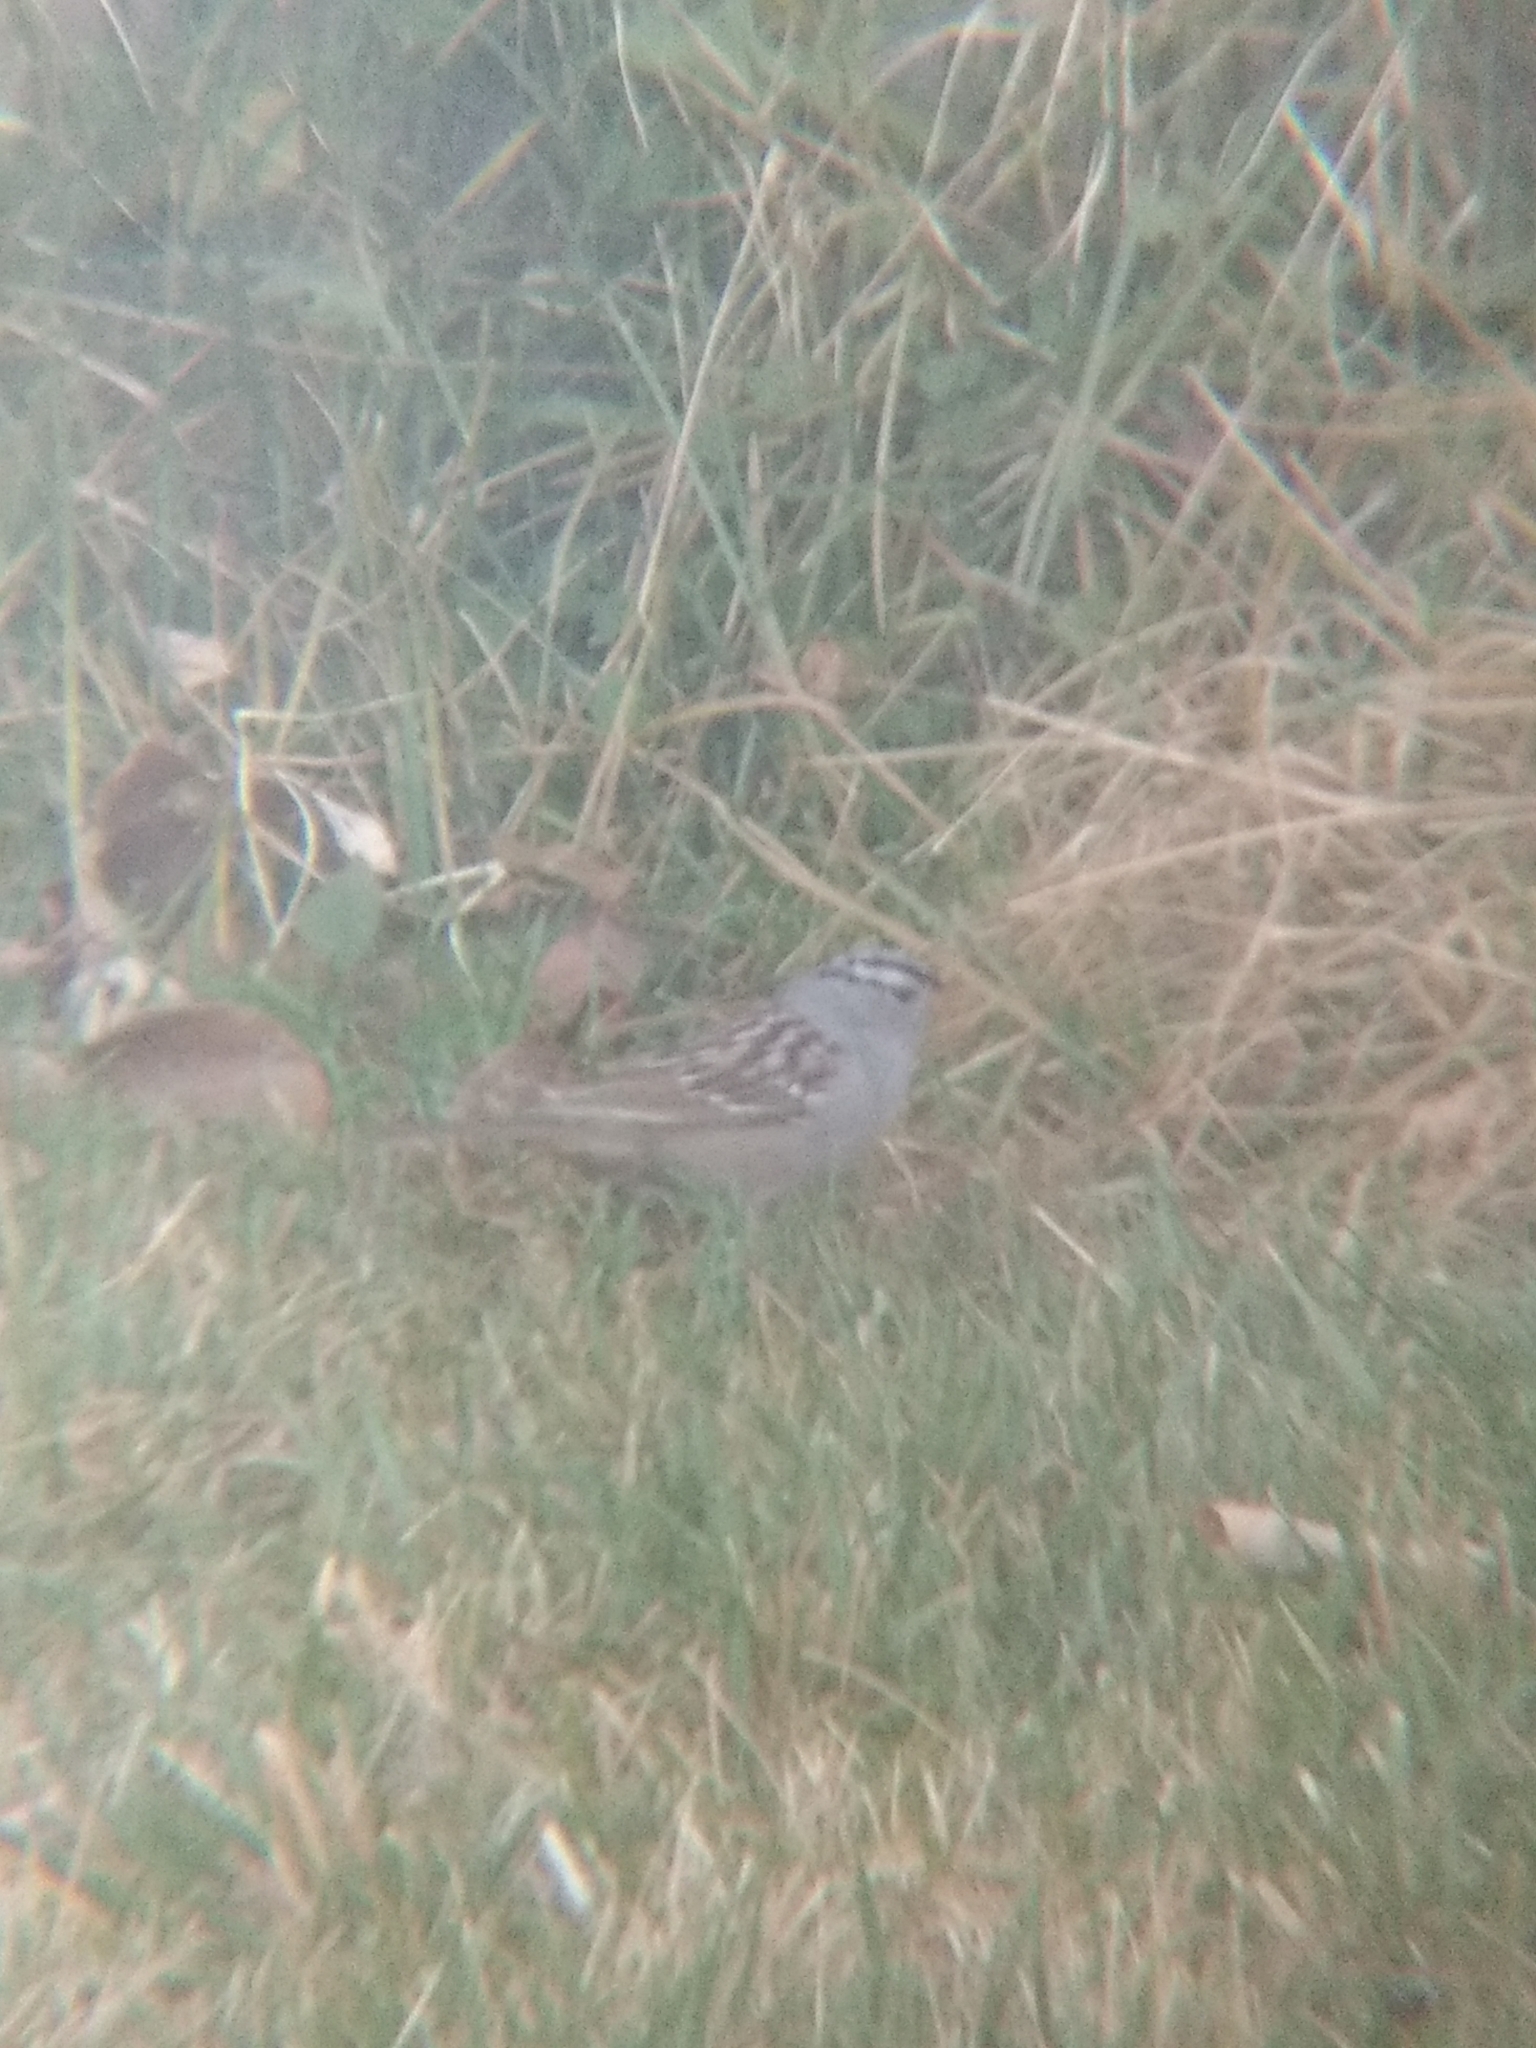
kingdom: Animalia
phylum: Chordata
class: Aves
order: Passeriformes
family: Passerellidae
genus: Zonotrichia
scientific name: Zonotrichia leucophrys
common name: White-crowned sparrow
